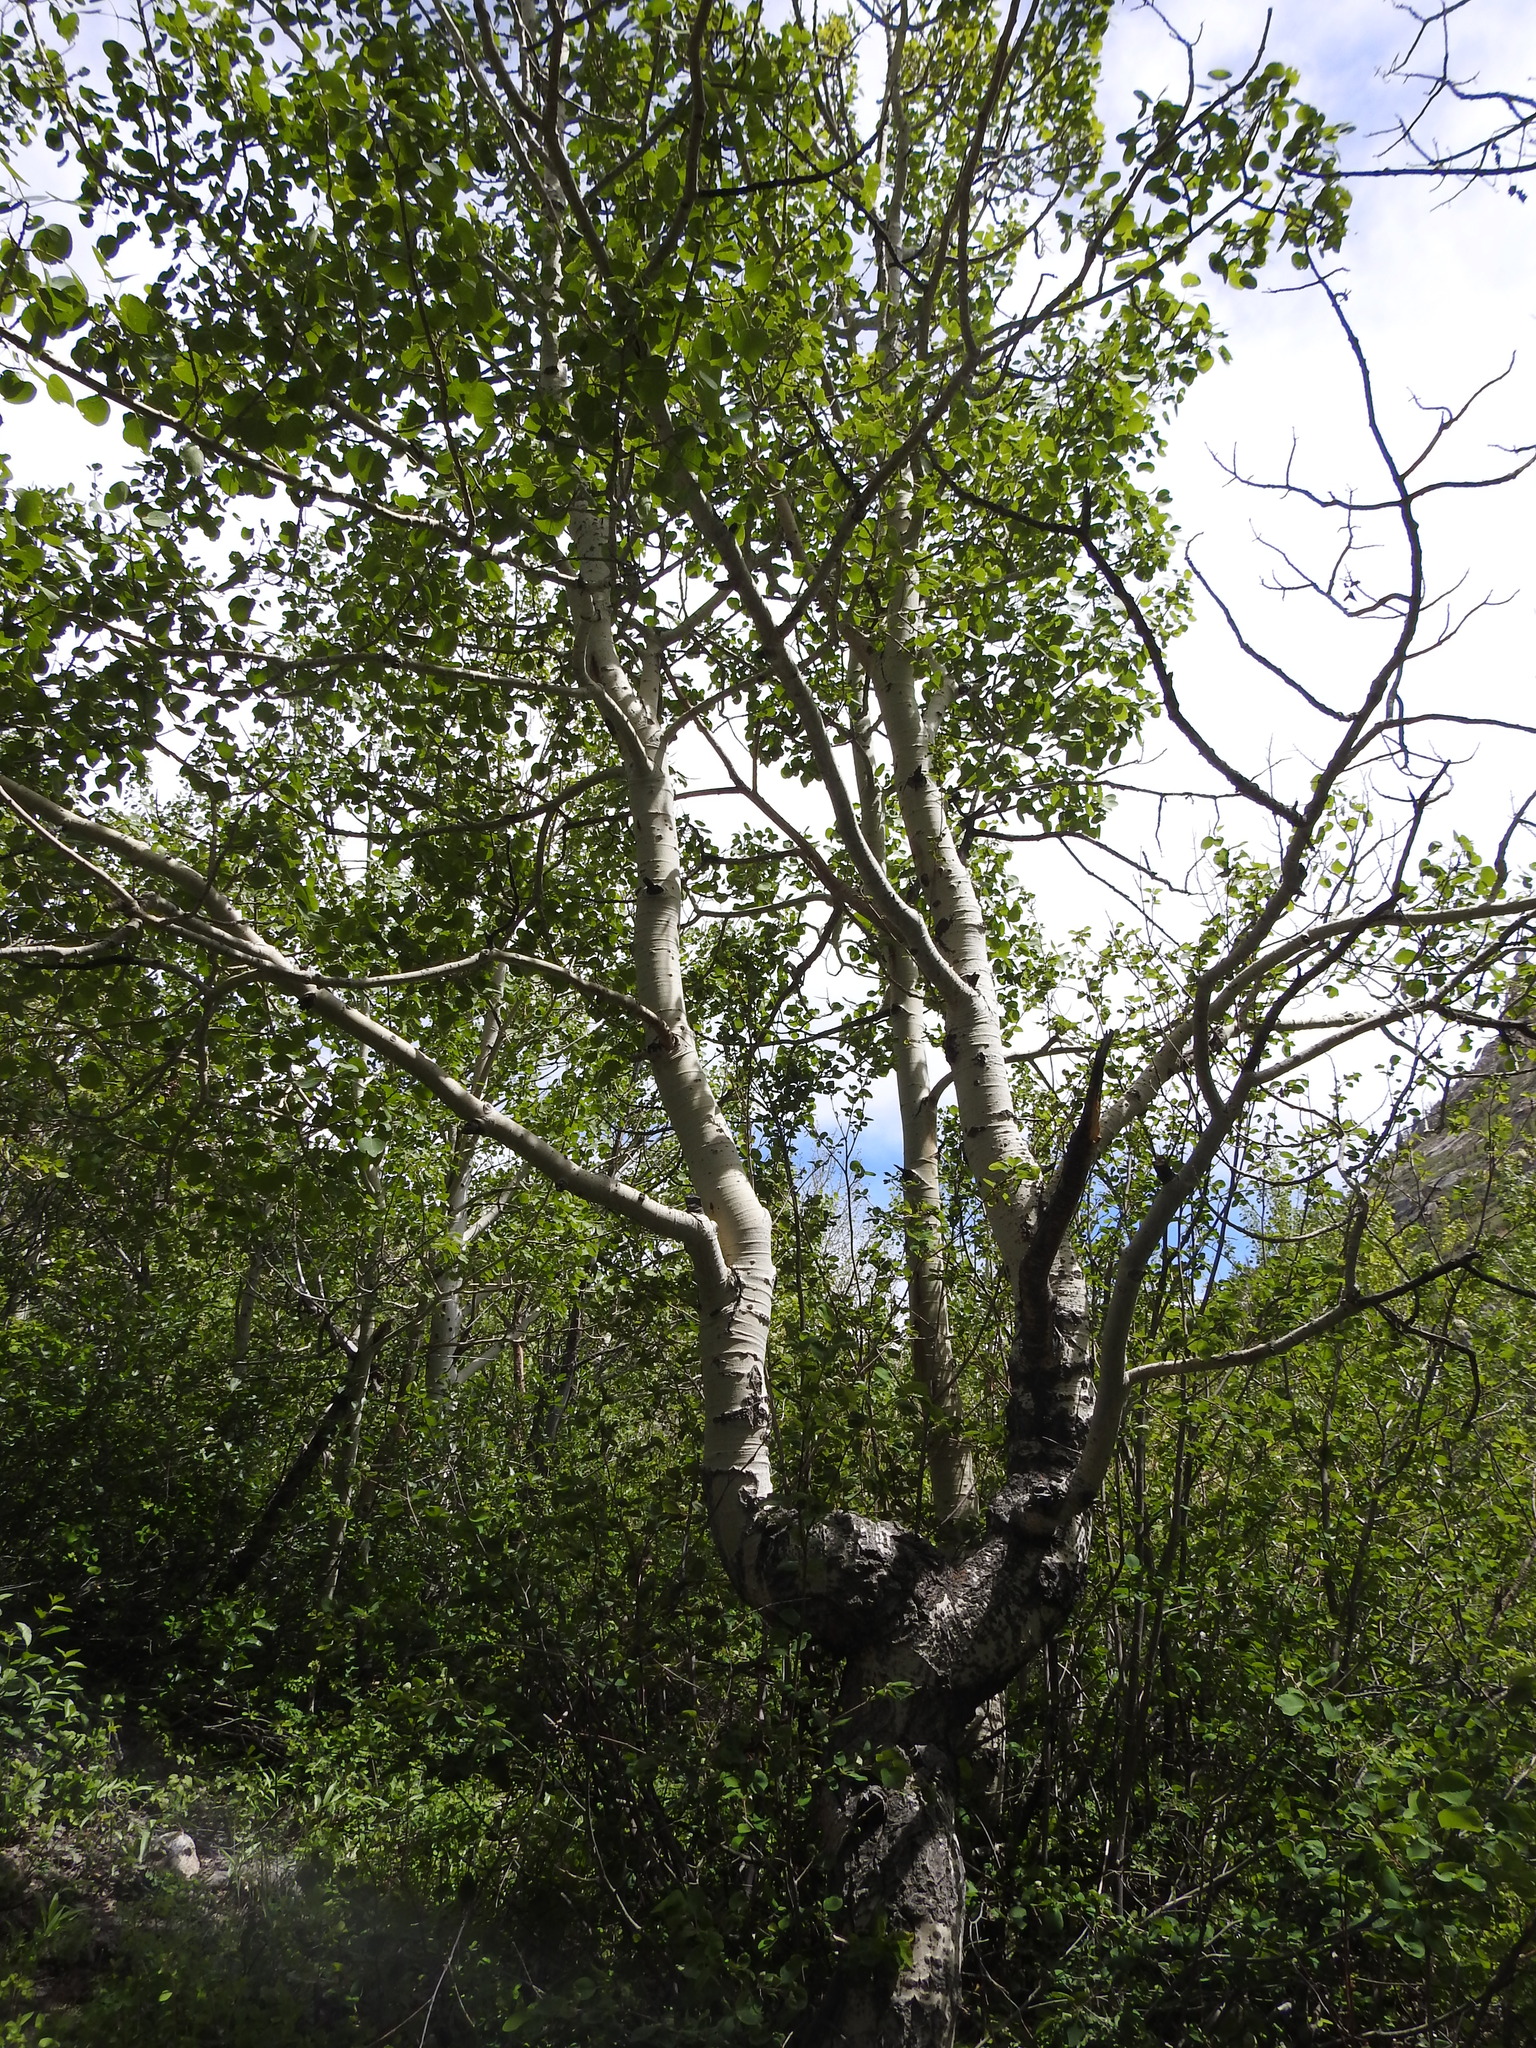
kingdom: Plantae
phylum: Tracheophyta
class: Magnoliopsida
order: Malpighiales
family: Salicaceae
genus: Populus
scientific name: Populus tremuloides
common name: Quaking aspen
